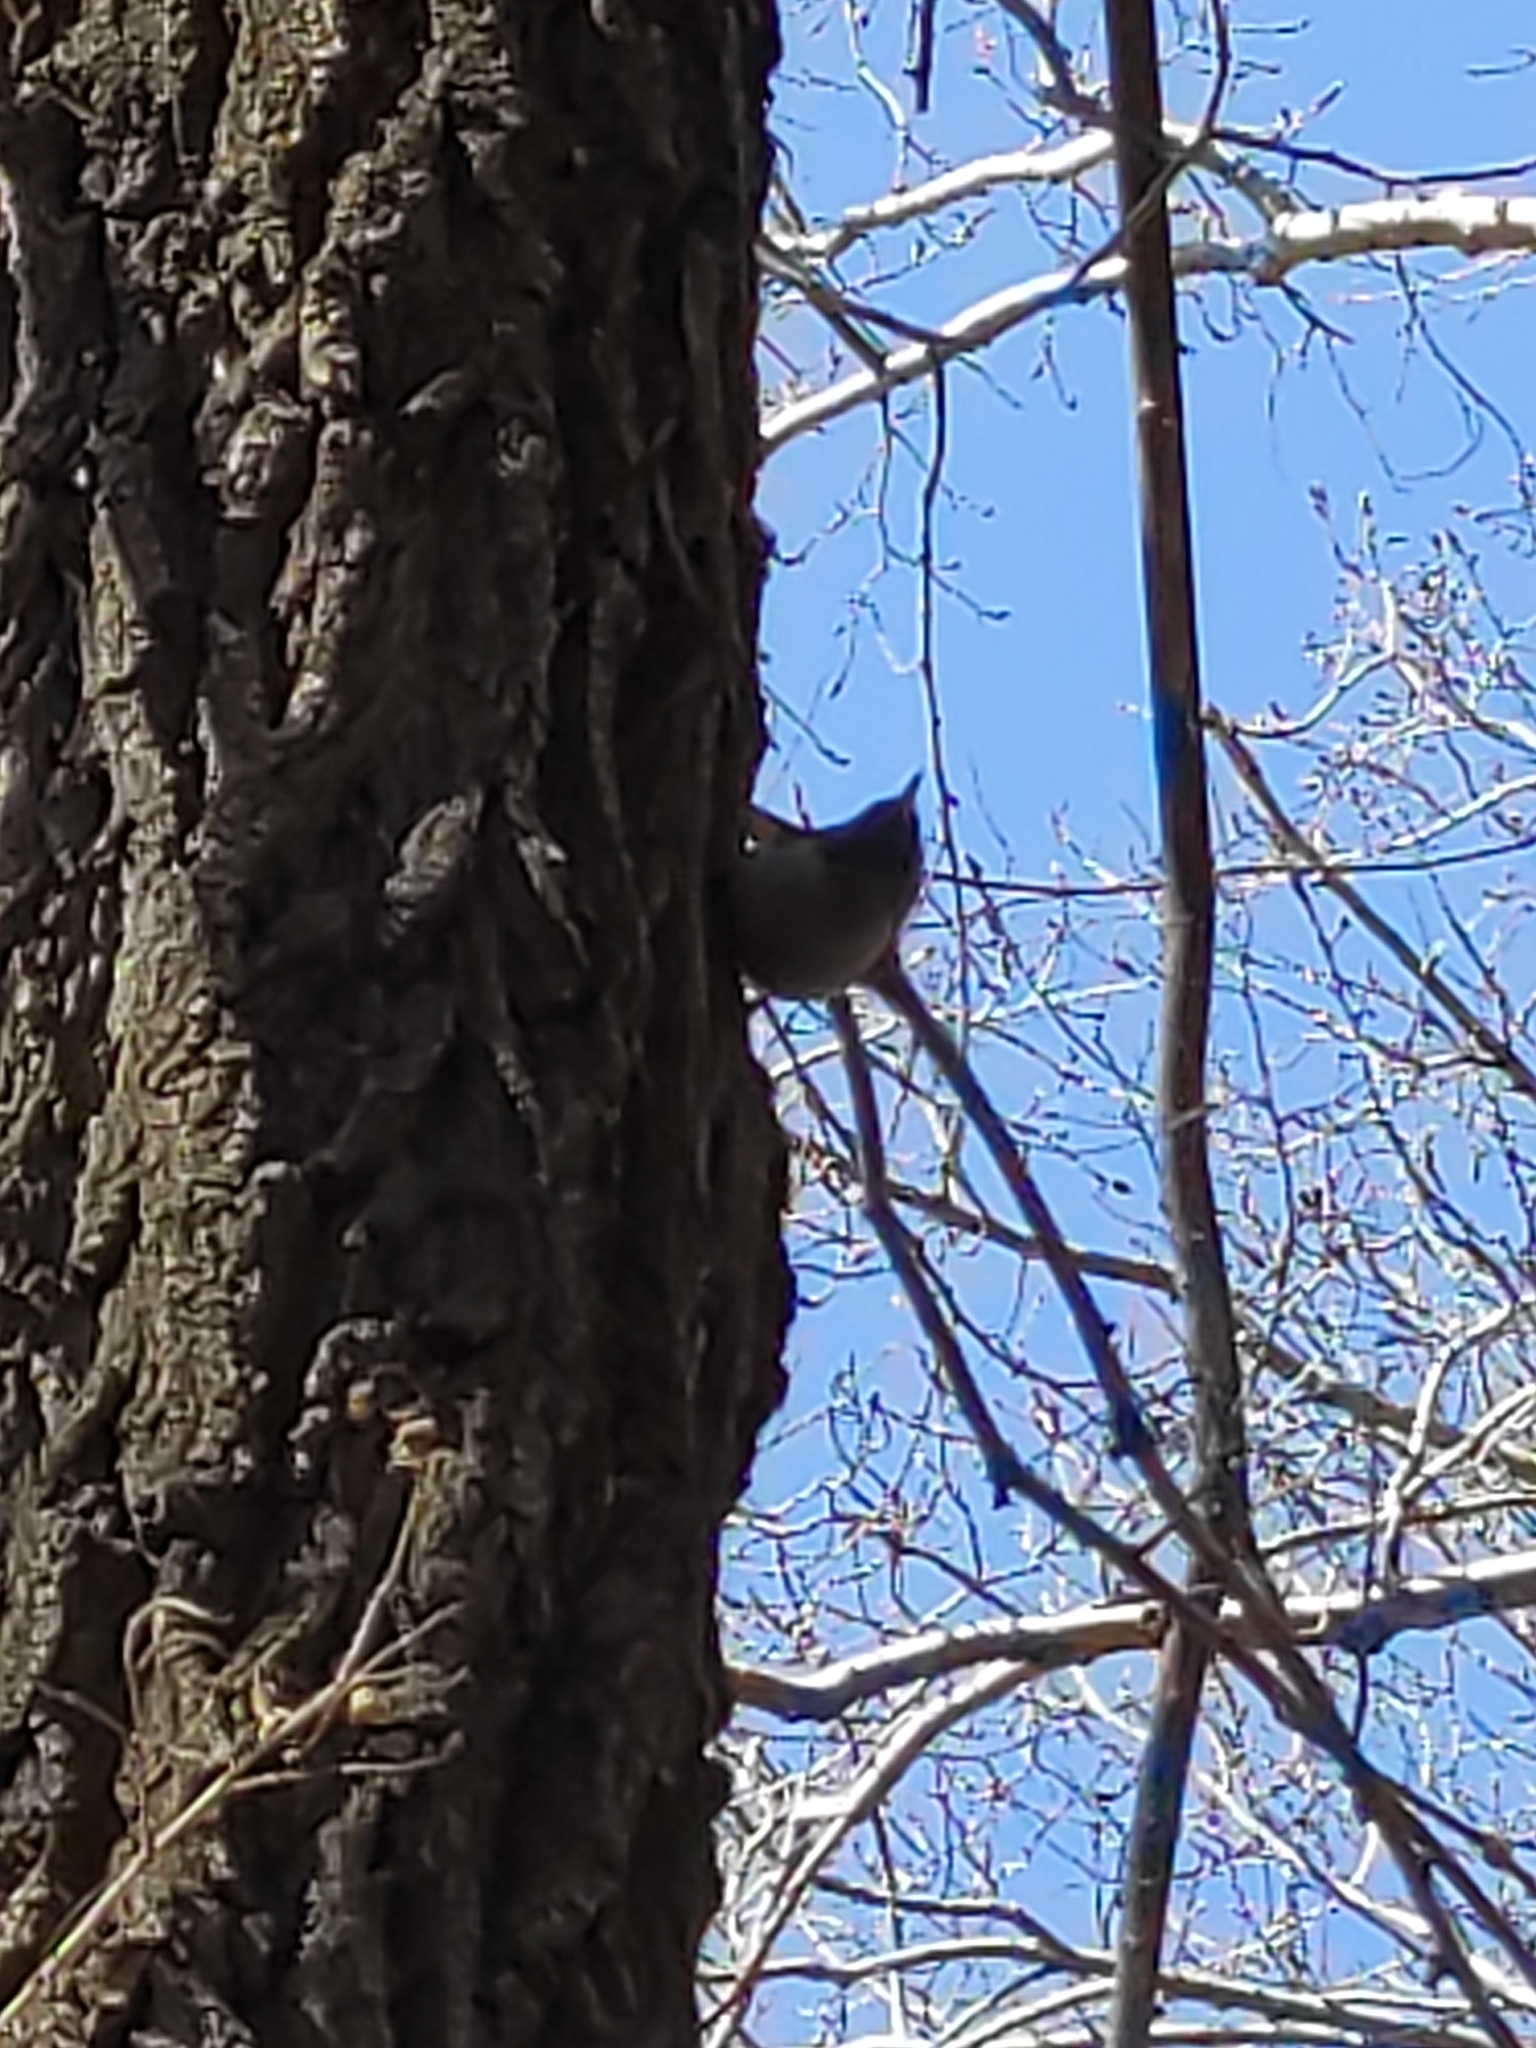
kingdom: Animalia
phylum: Chordata
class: Aves
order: Passeriformes
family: Sittidae
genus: Sitta
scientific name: Sitta europaea
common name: Eurasian nuthatch
